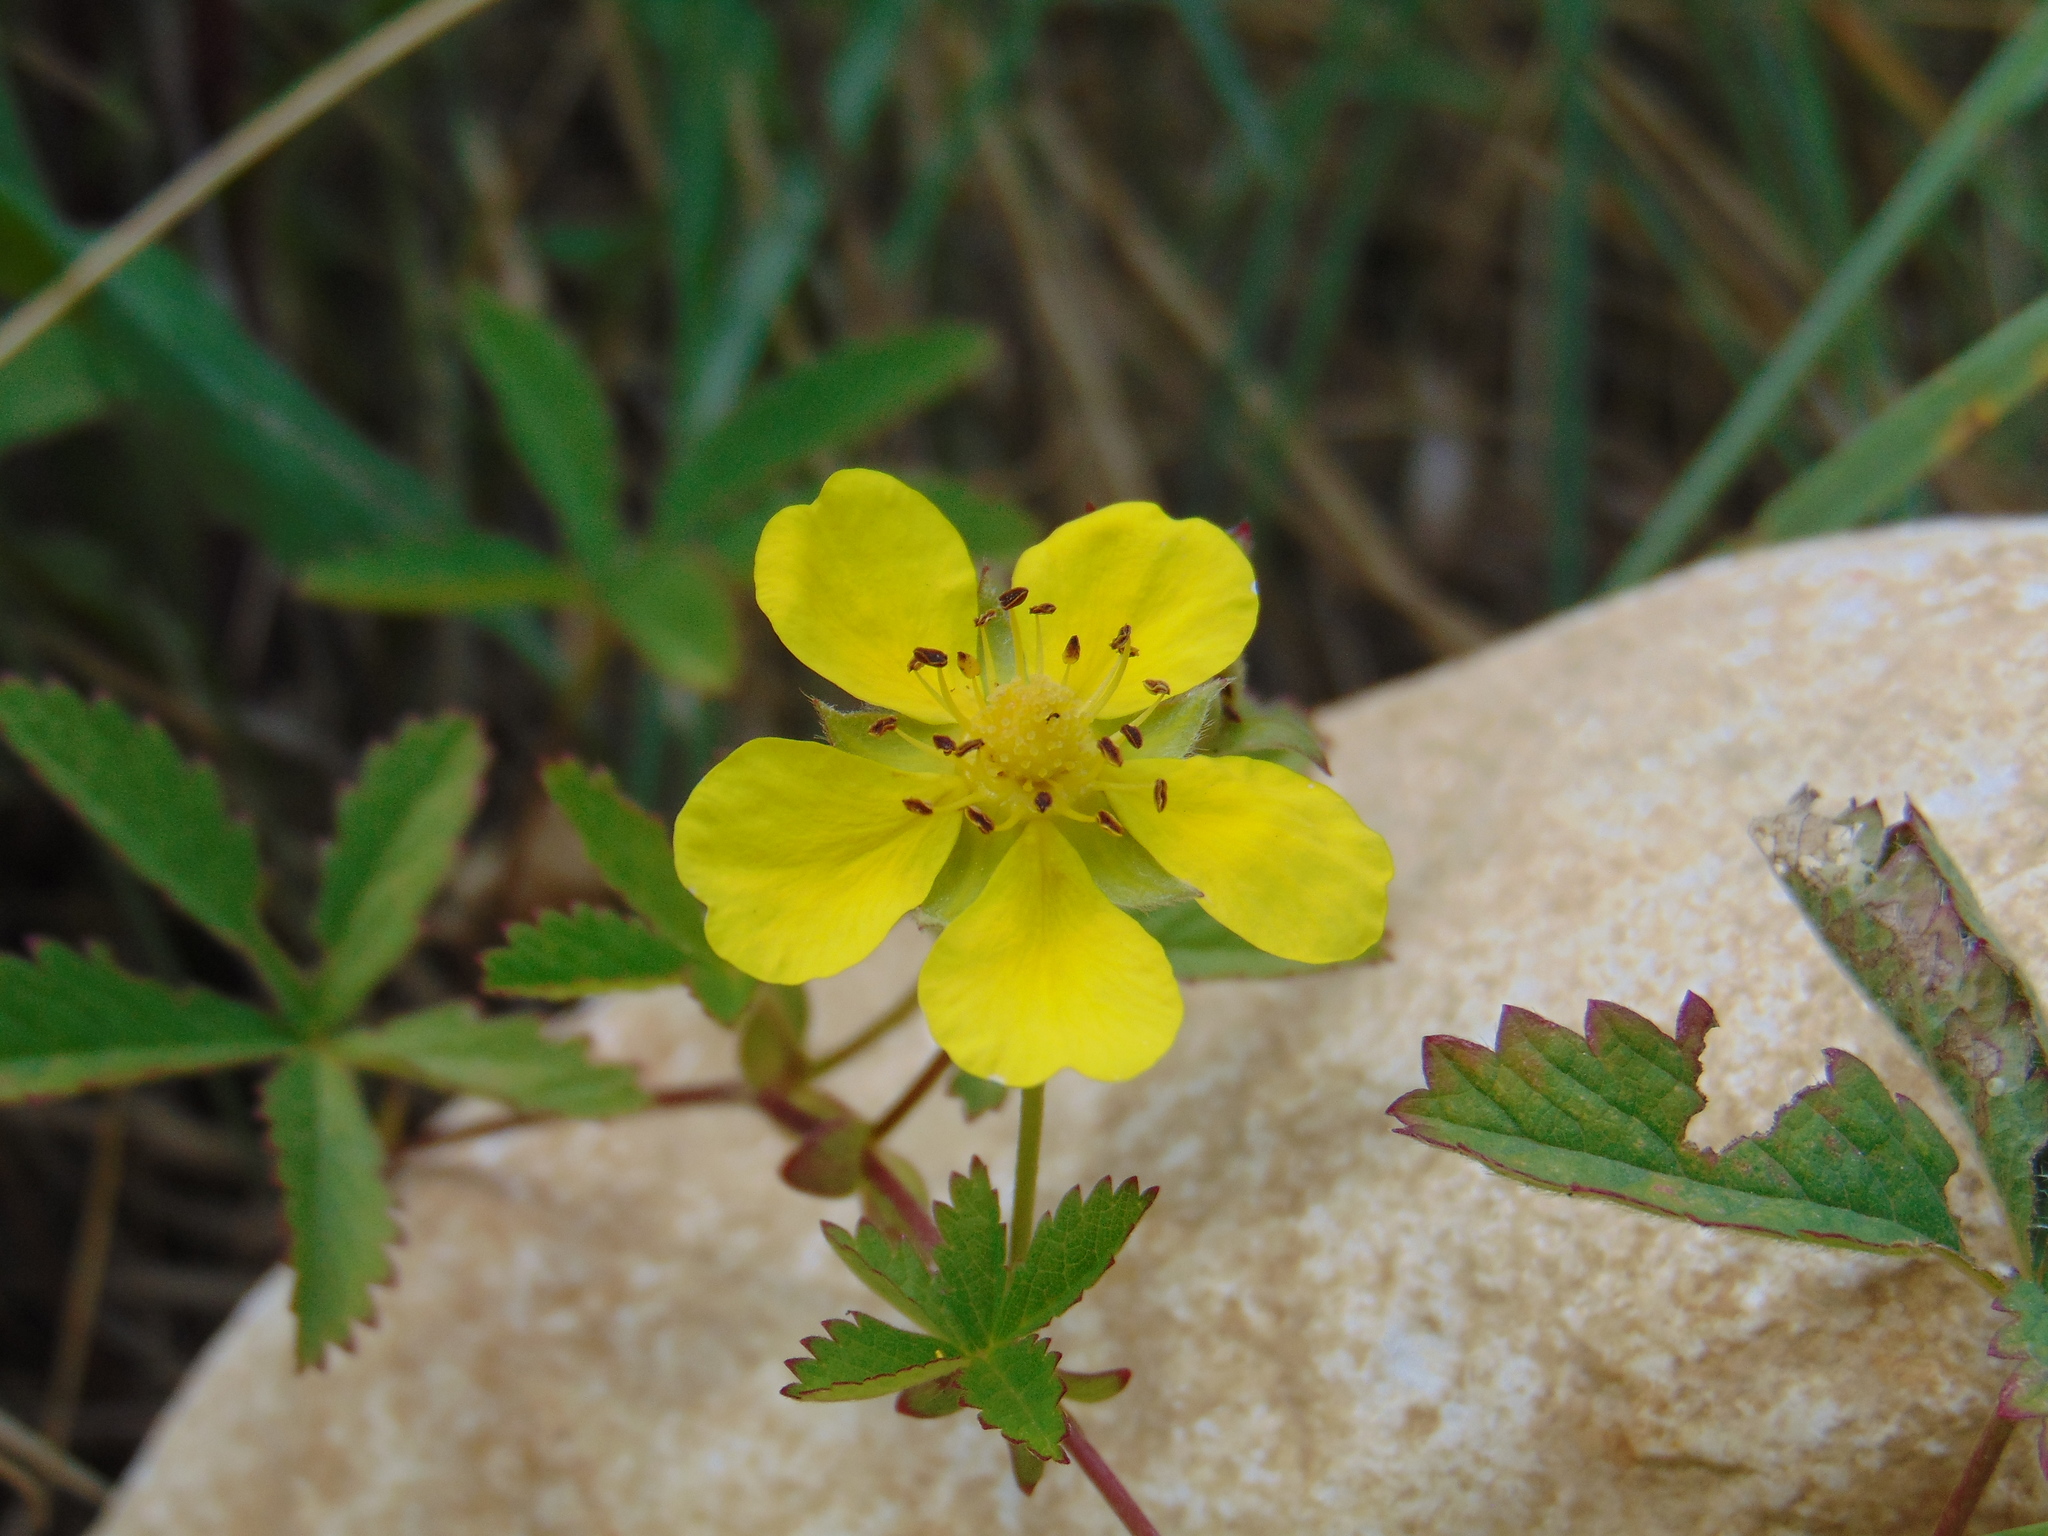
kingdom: Plantae
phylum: Tracheophyta
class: Magnoliopsida
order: Rosales
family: Rosaceae
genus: Potentilla
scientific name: Potentilla reptans
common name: Creeping cinquefoil
